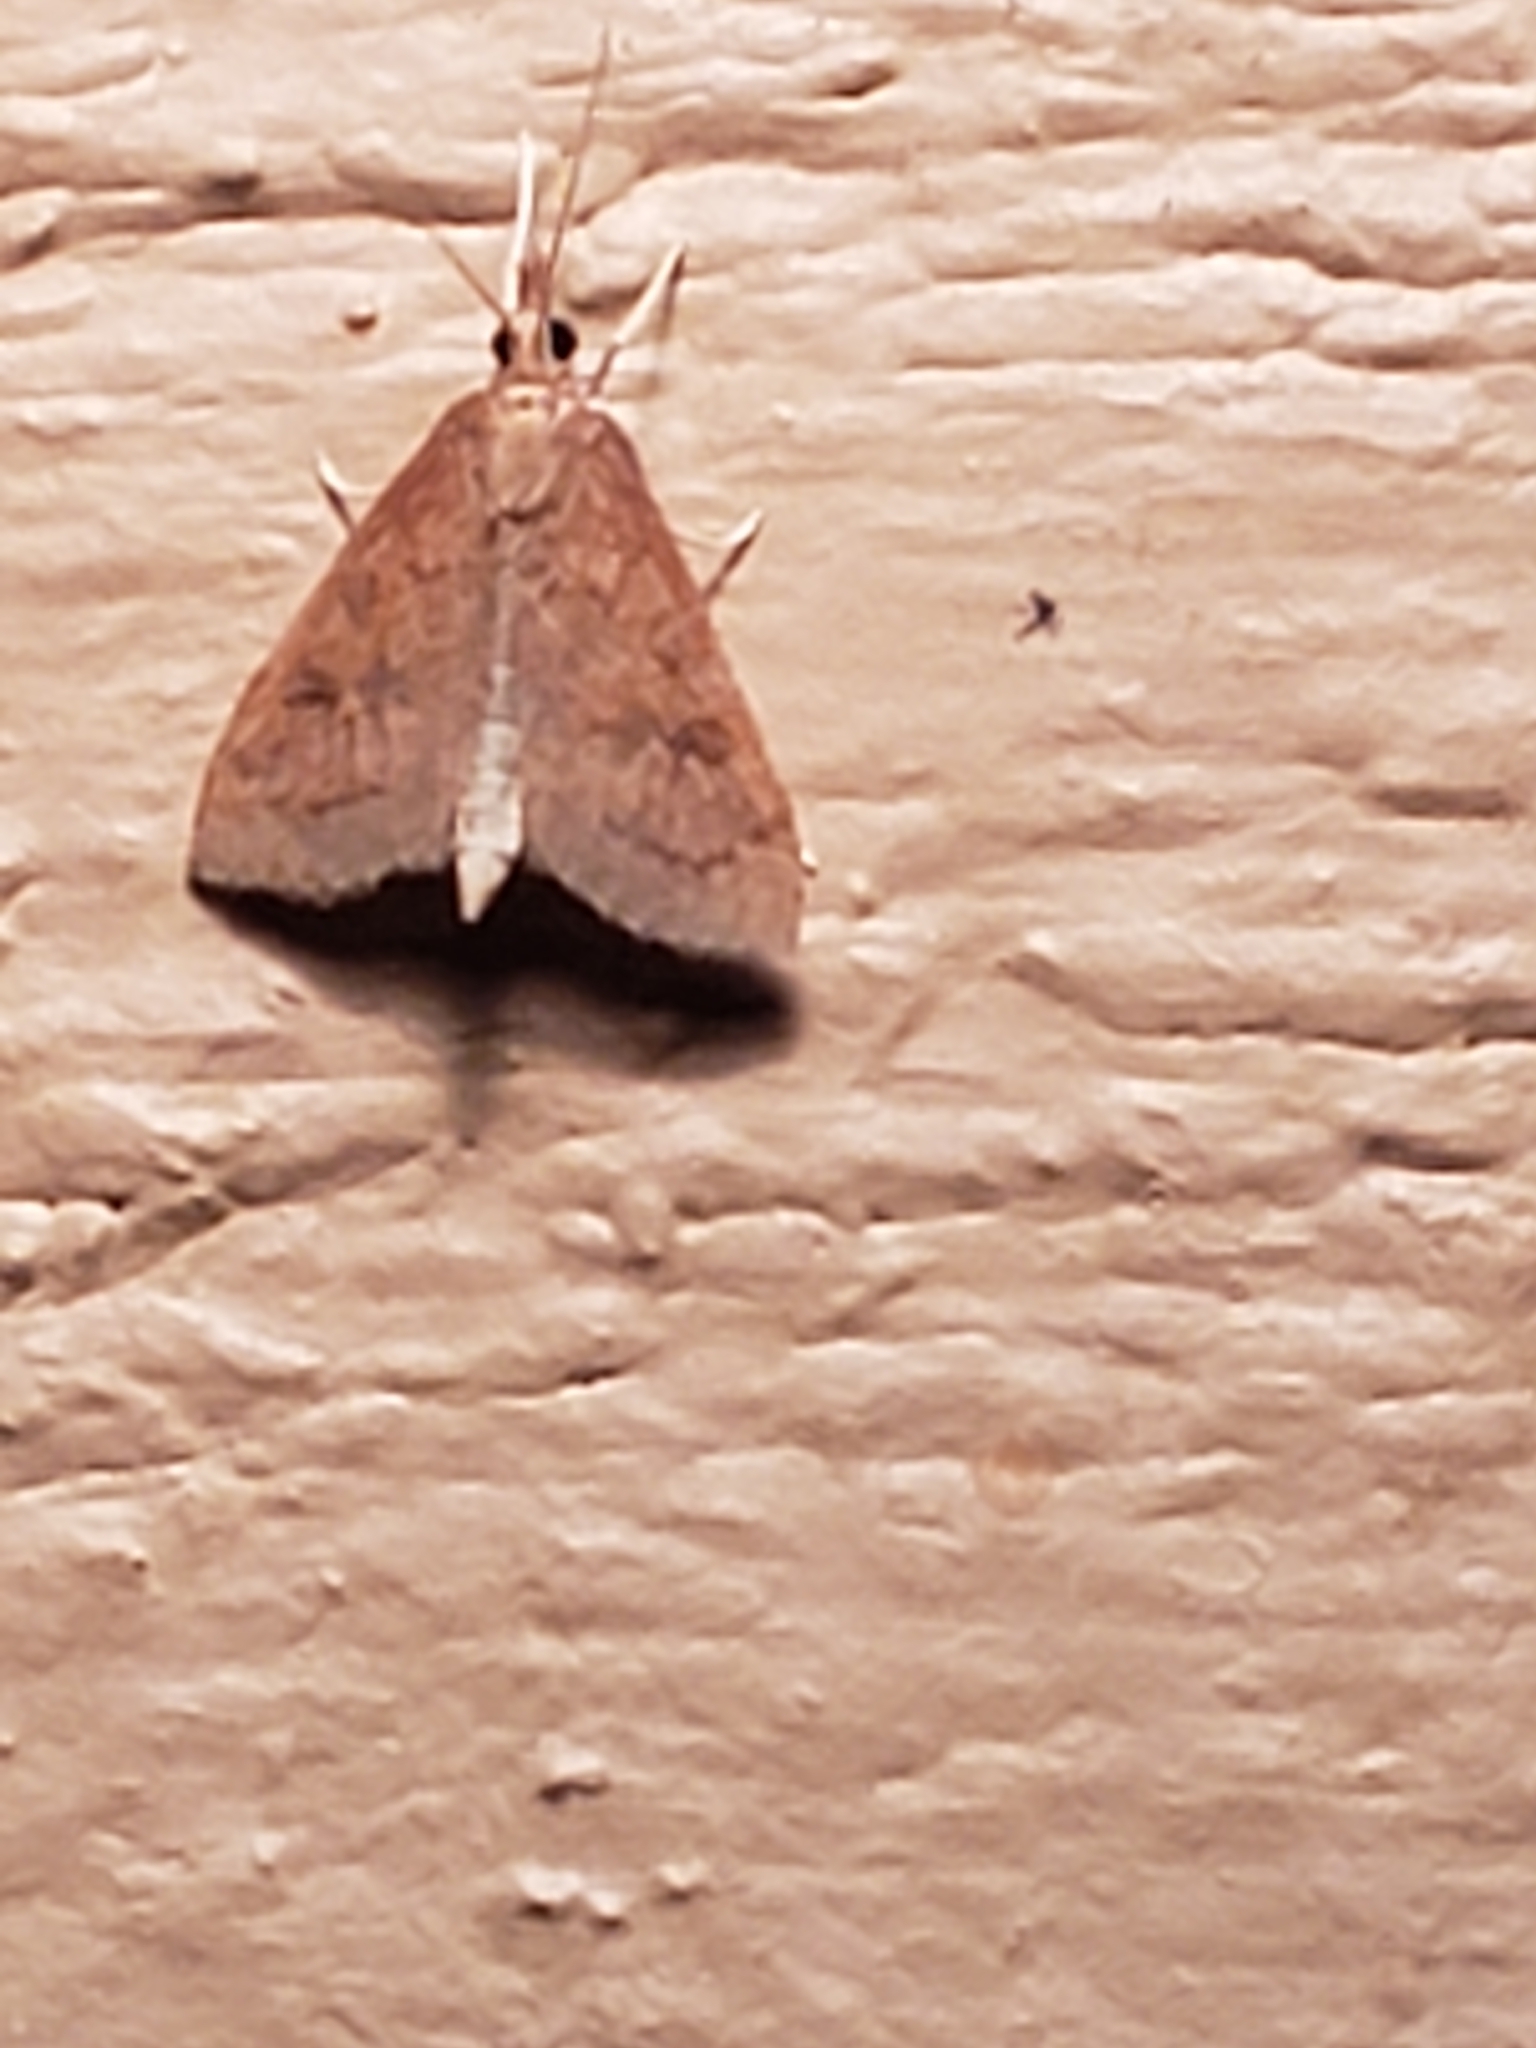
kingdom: Animalia
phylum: Arthropoda
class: Insecta
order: Lepidoptera
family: Crambidae
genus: Udea
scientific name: Udea rubigalis
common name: Celery leaftier moth
